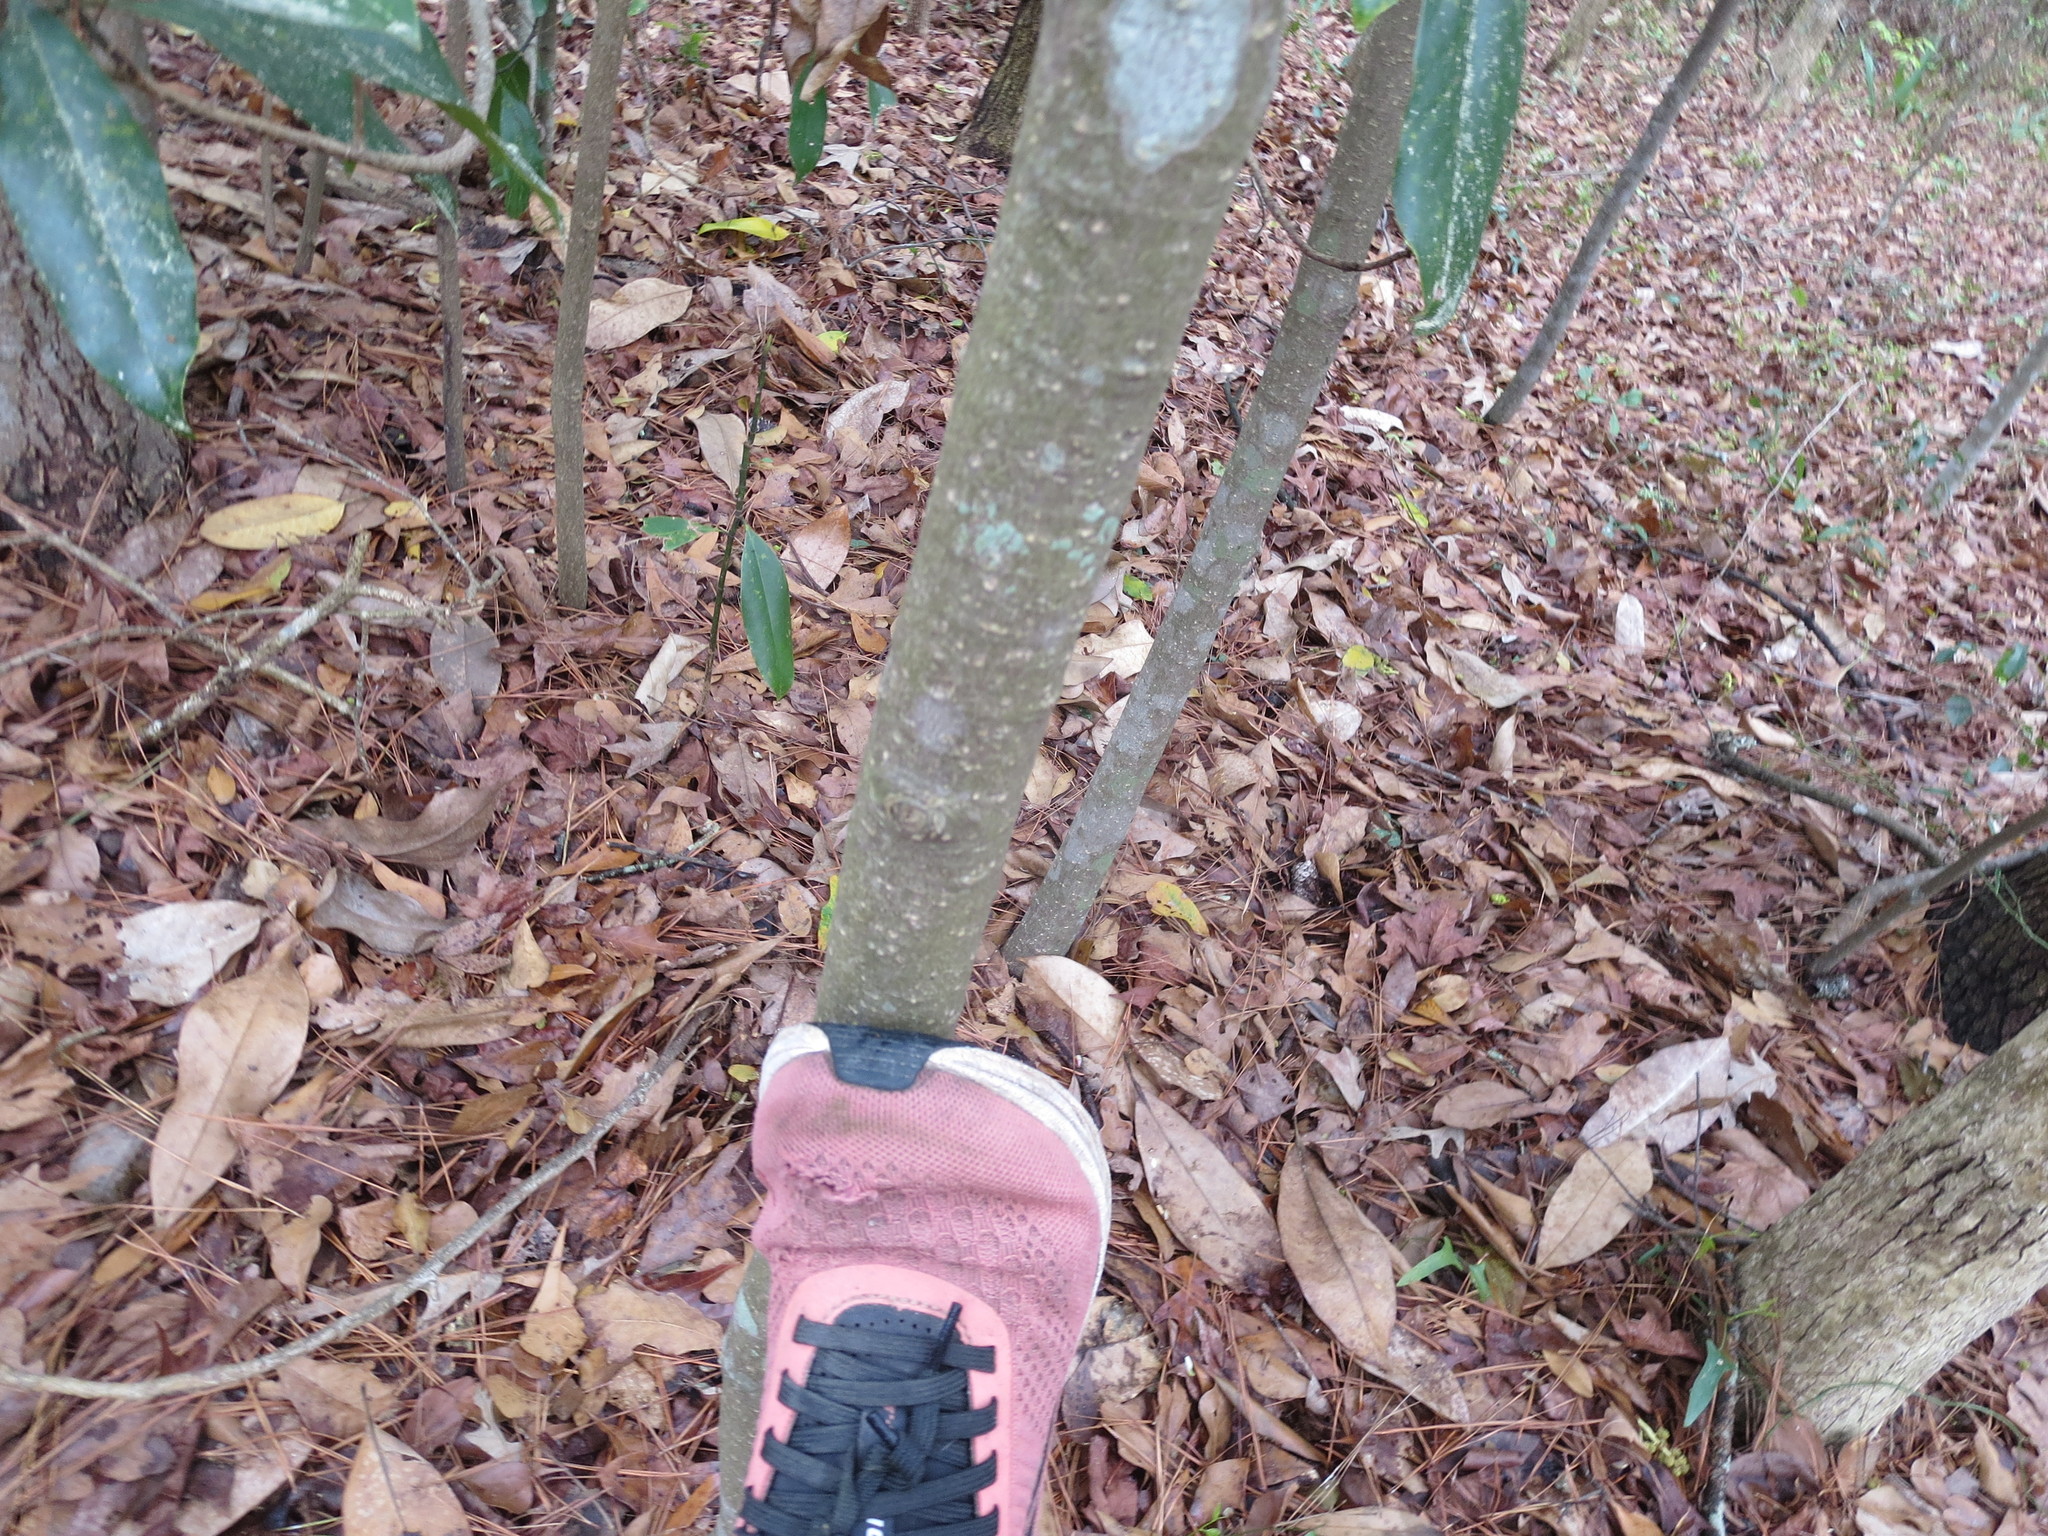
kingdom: Plantae
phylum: Tracheophyta
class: Magnoliopsida
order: Magnoliales
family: Magnoliaceae
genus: Magnolia
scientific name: Magnolia grandiflora
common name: Southern magnolia
